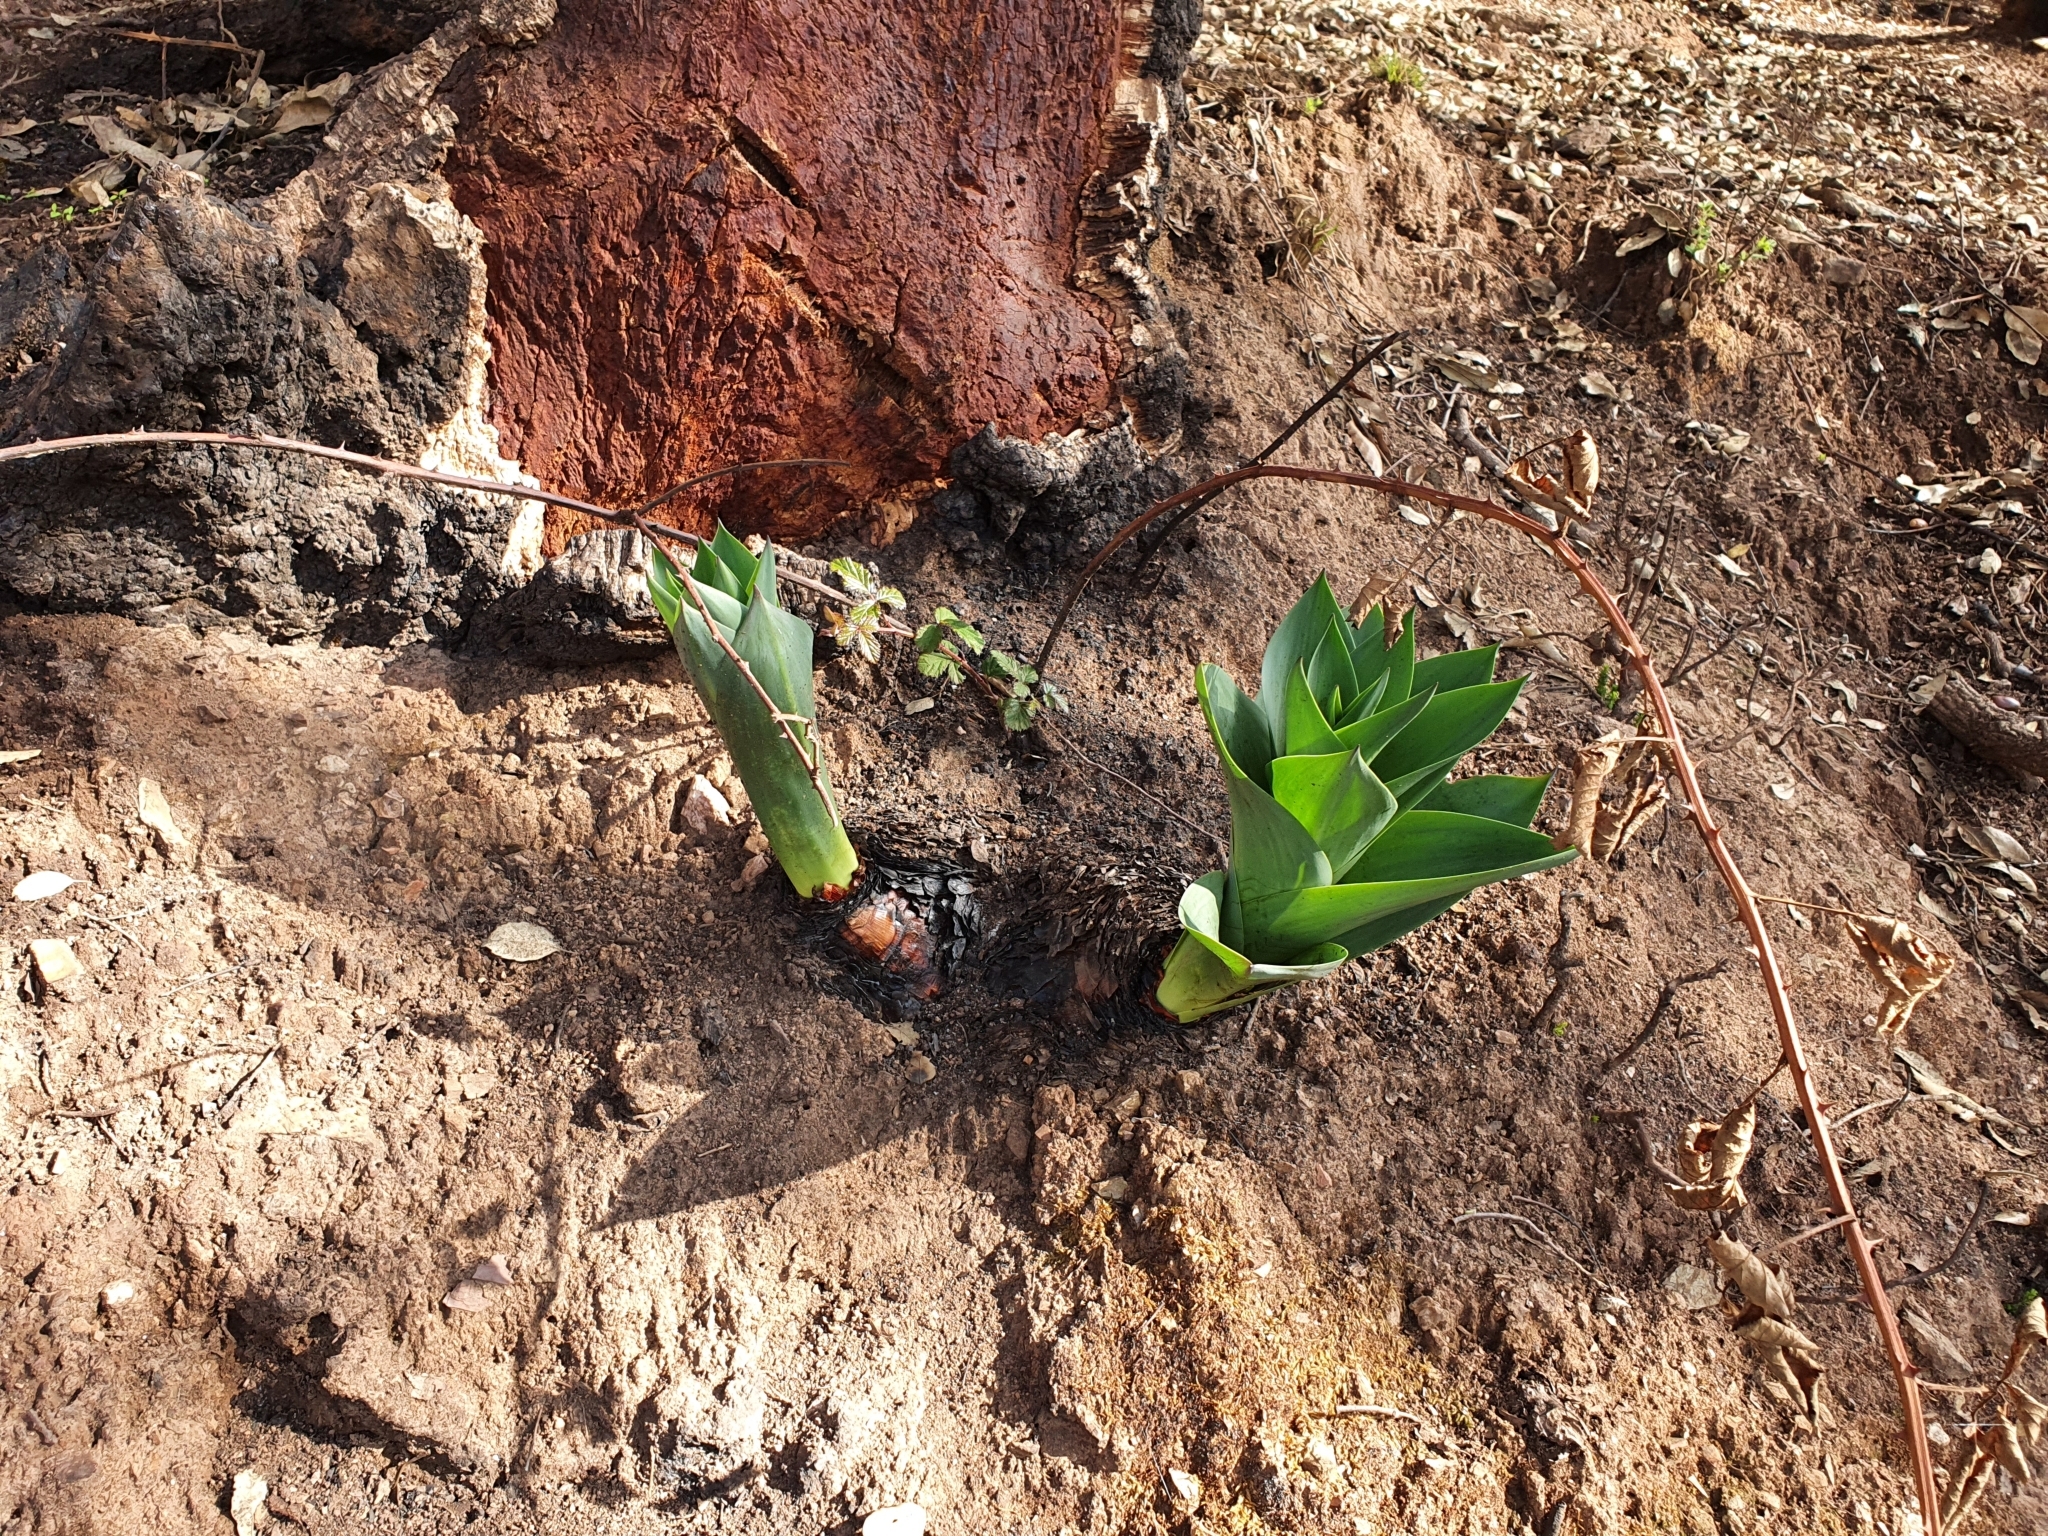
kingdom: Plantae
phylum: Tracheophyta
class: Liliopsida
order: Asparagales
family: Asparagaceae
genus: Drimia
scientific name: Drimia numidica
